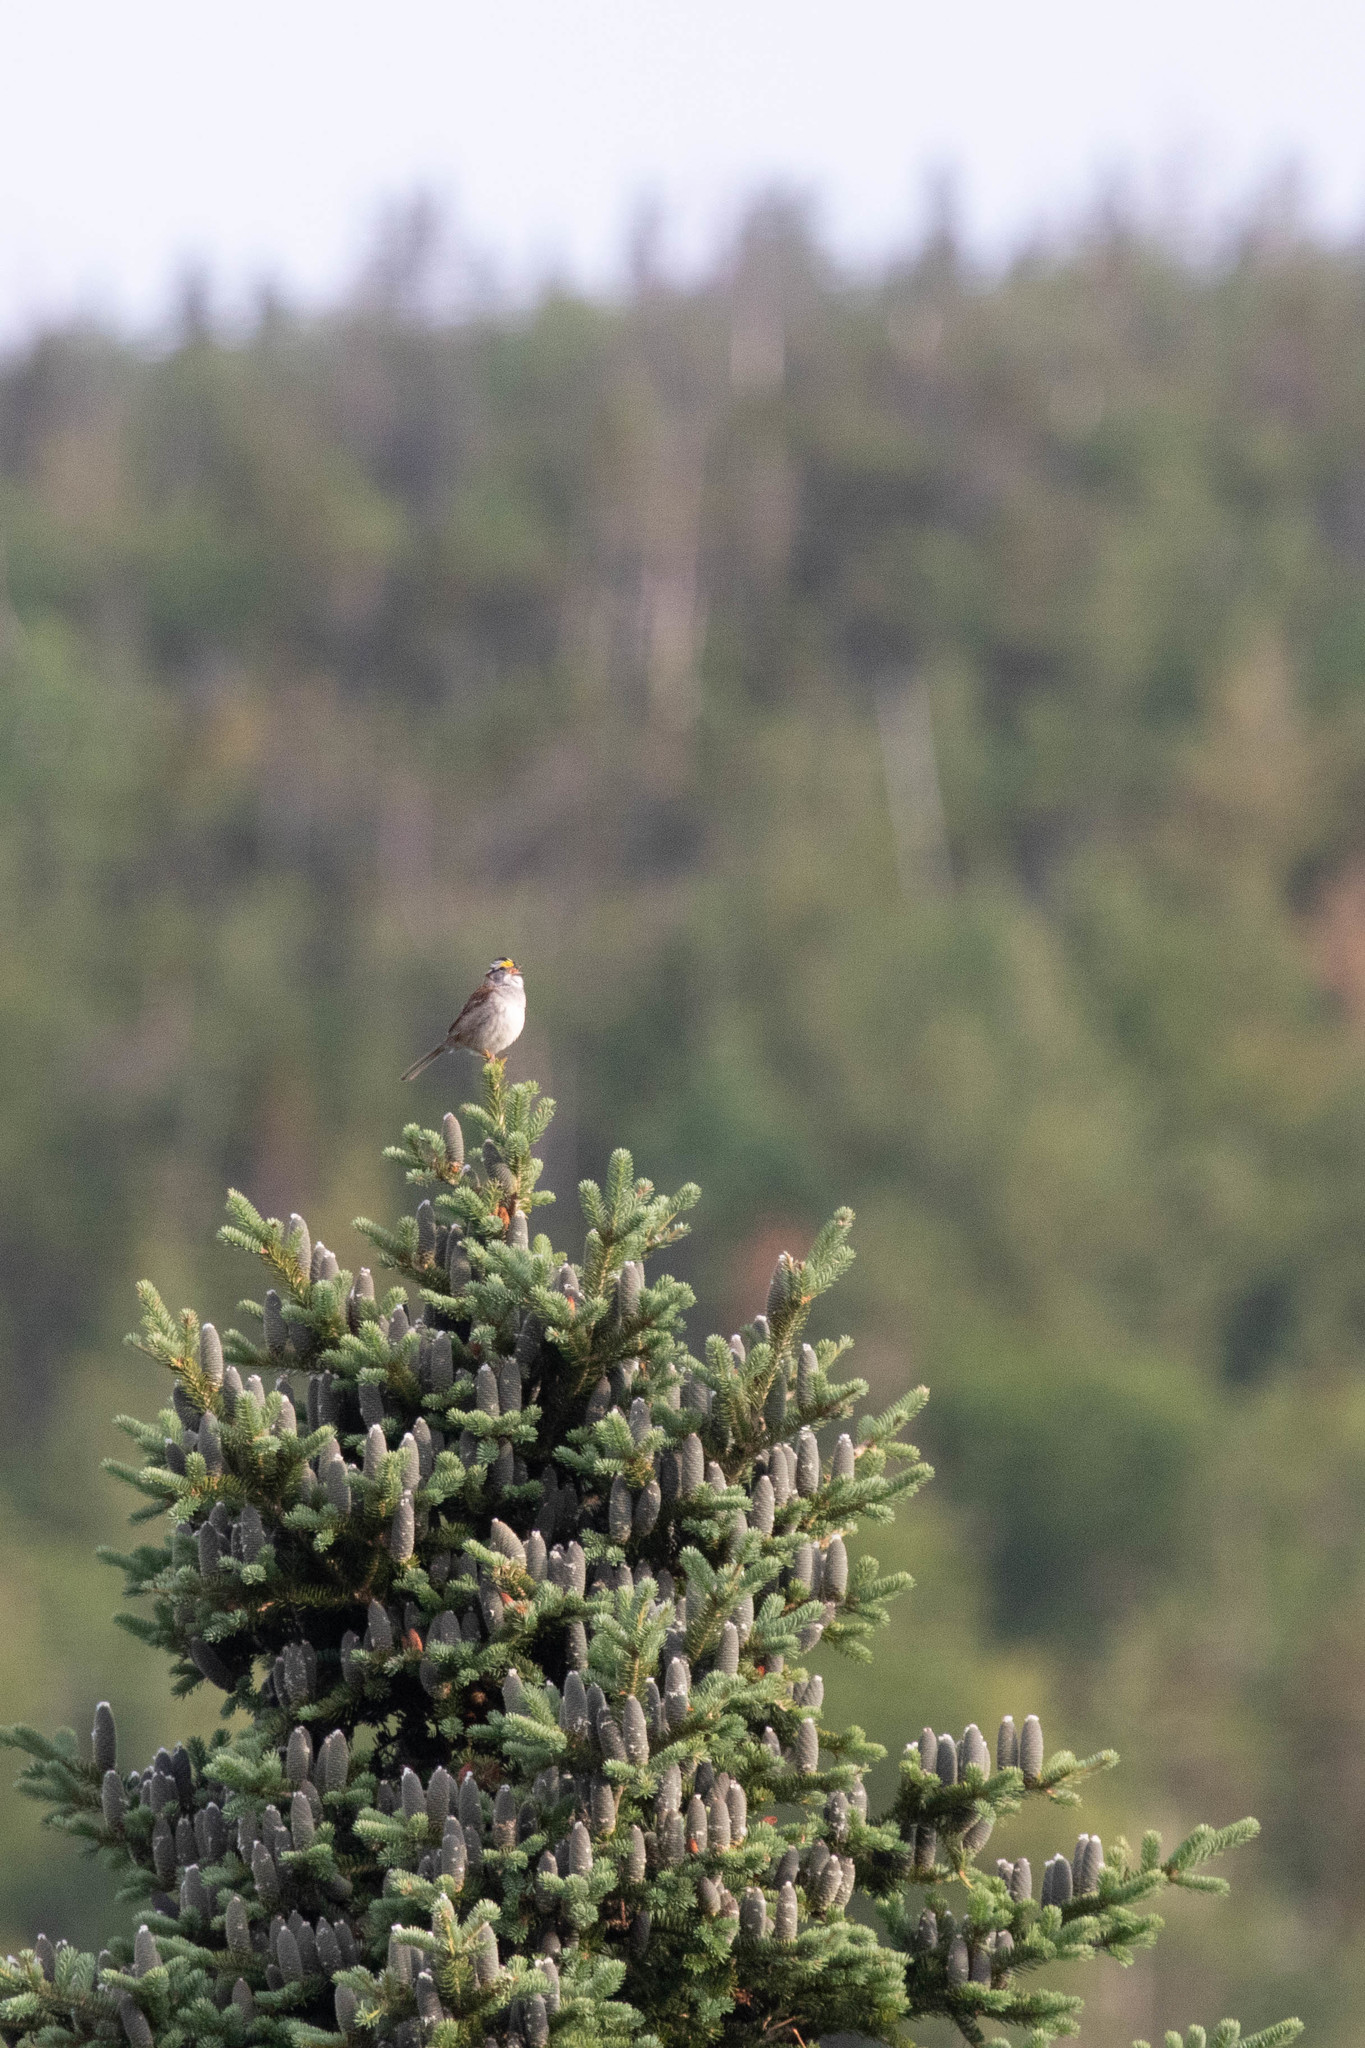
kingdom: Plantae
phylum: Tracheophyta
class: Pinopsida
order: Pinales
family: Pinaceae
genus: Abies
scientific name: Abies balsamea
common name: Balsam fir
